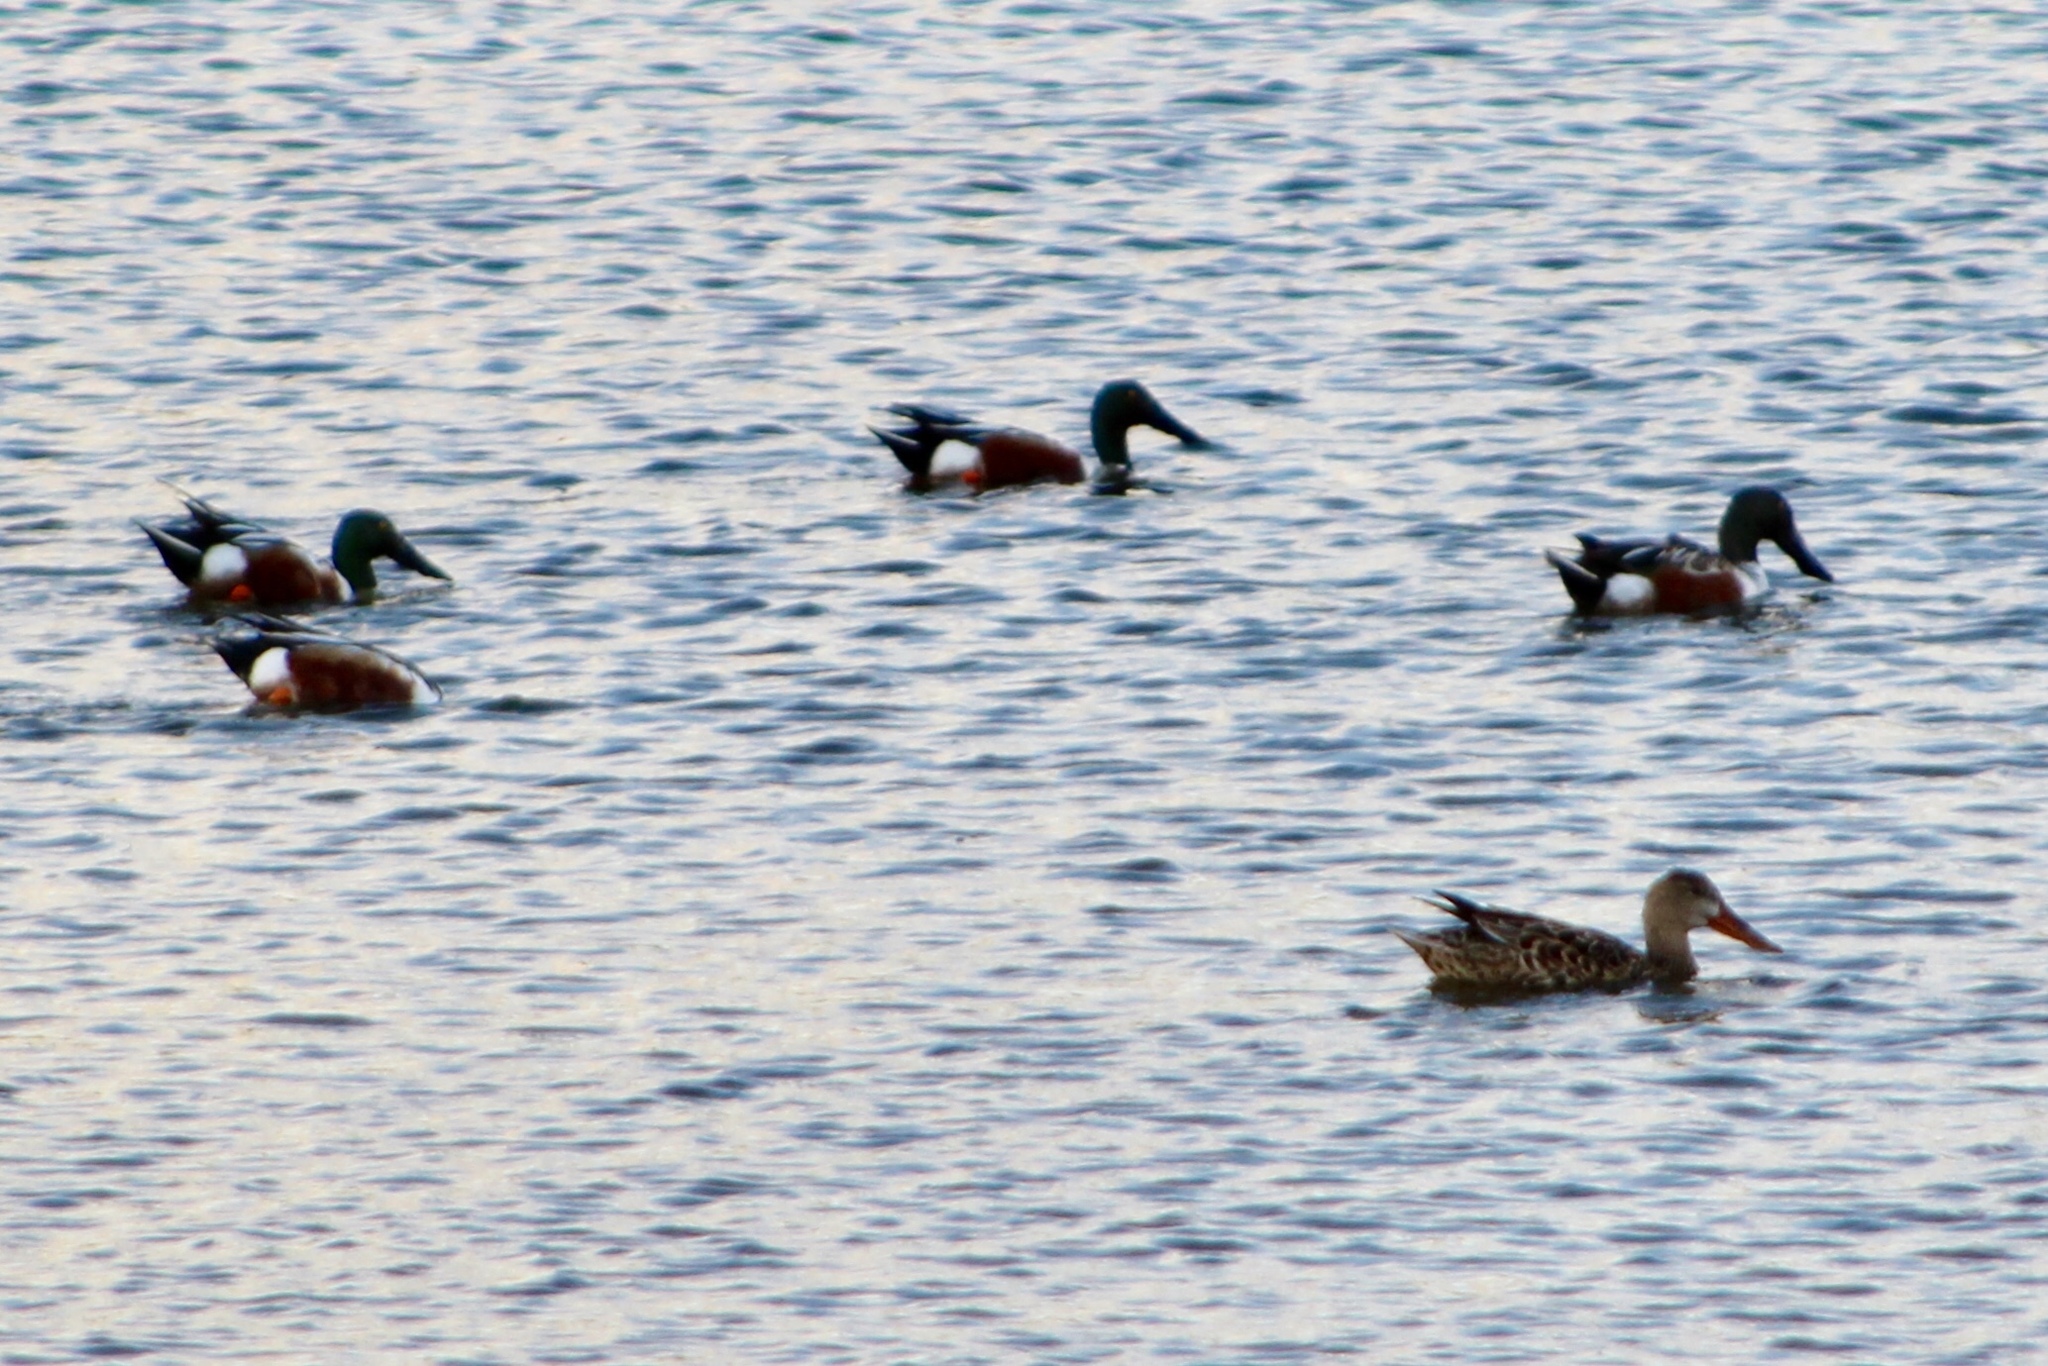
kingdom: Animalia
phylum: Chordata
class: Aves
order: Anseriformes
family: Anatidae
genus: Spatula
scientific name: Spatula clypeata
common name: Northern shoveler
